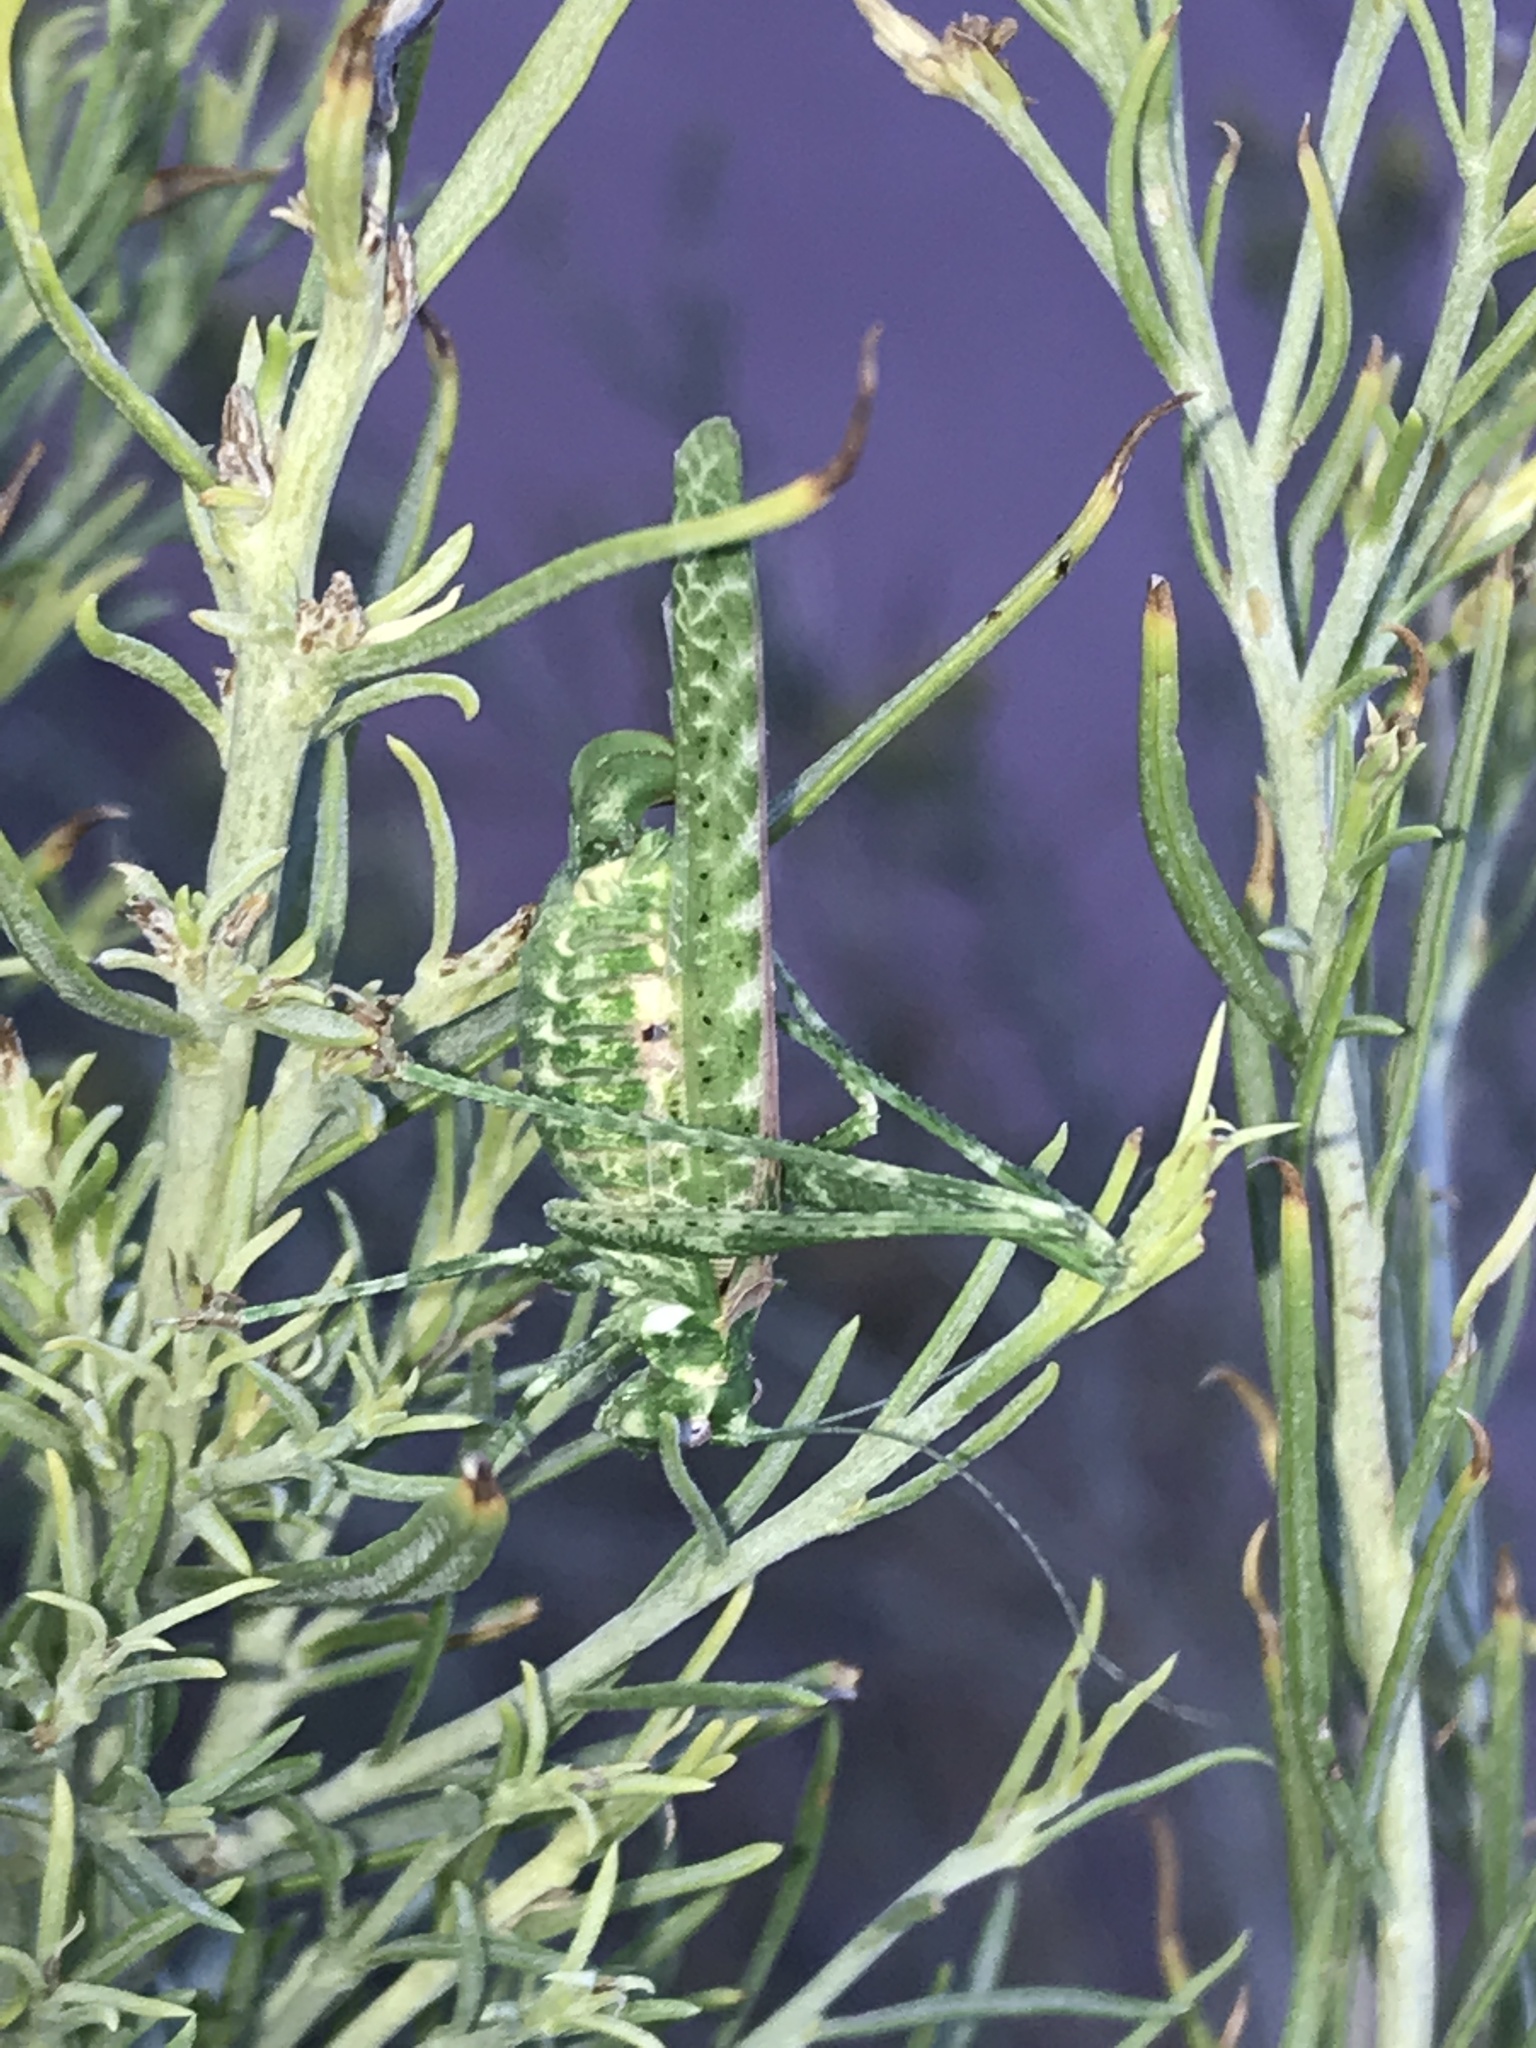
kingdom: Animalia
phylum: Arthropoda
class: Insecta
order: Orthoptera
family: Tettigoniidae
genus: Insara
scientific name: Insara tessellata
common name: Tessellate bush katydid
